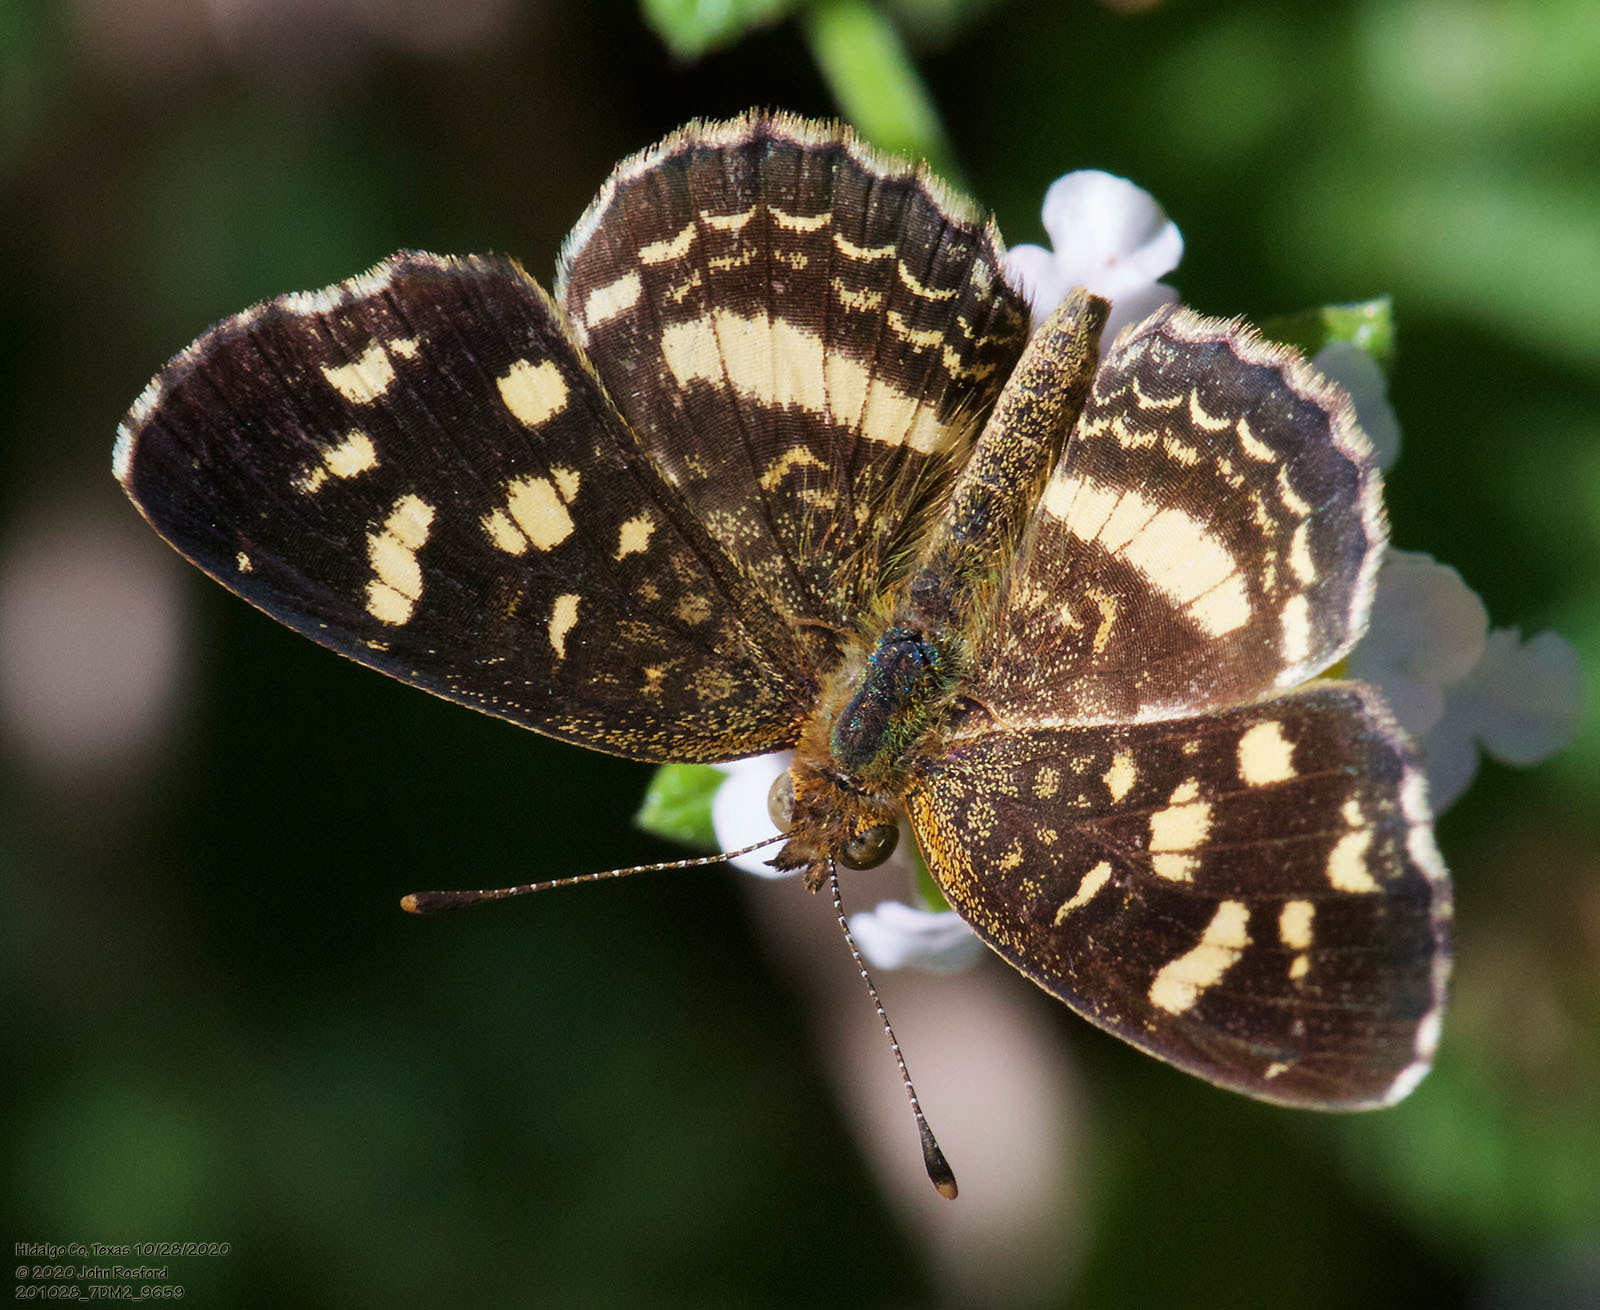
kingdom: Animalia
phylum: Arthropoda
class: Insecta
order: Lepidoptera
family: Nymphalidae
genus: Anthanassa
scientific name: Anthanassa tulcis
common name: Pale-banded crescent
